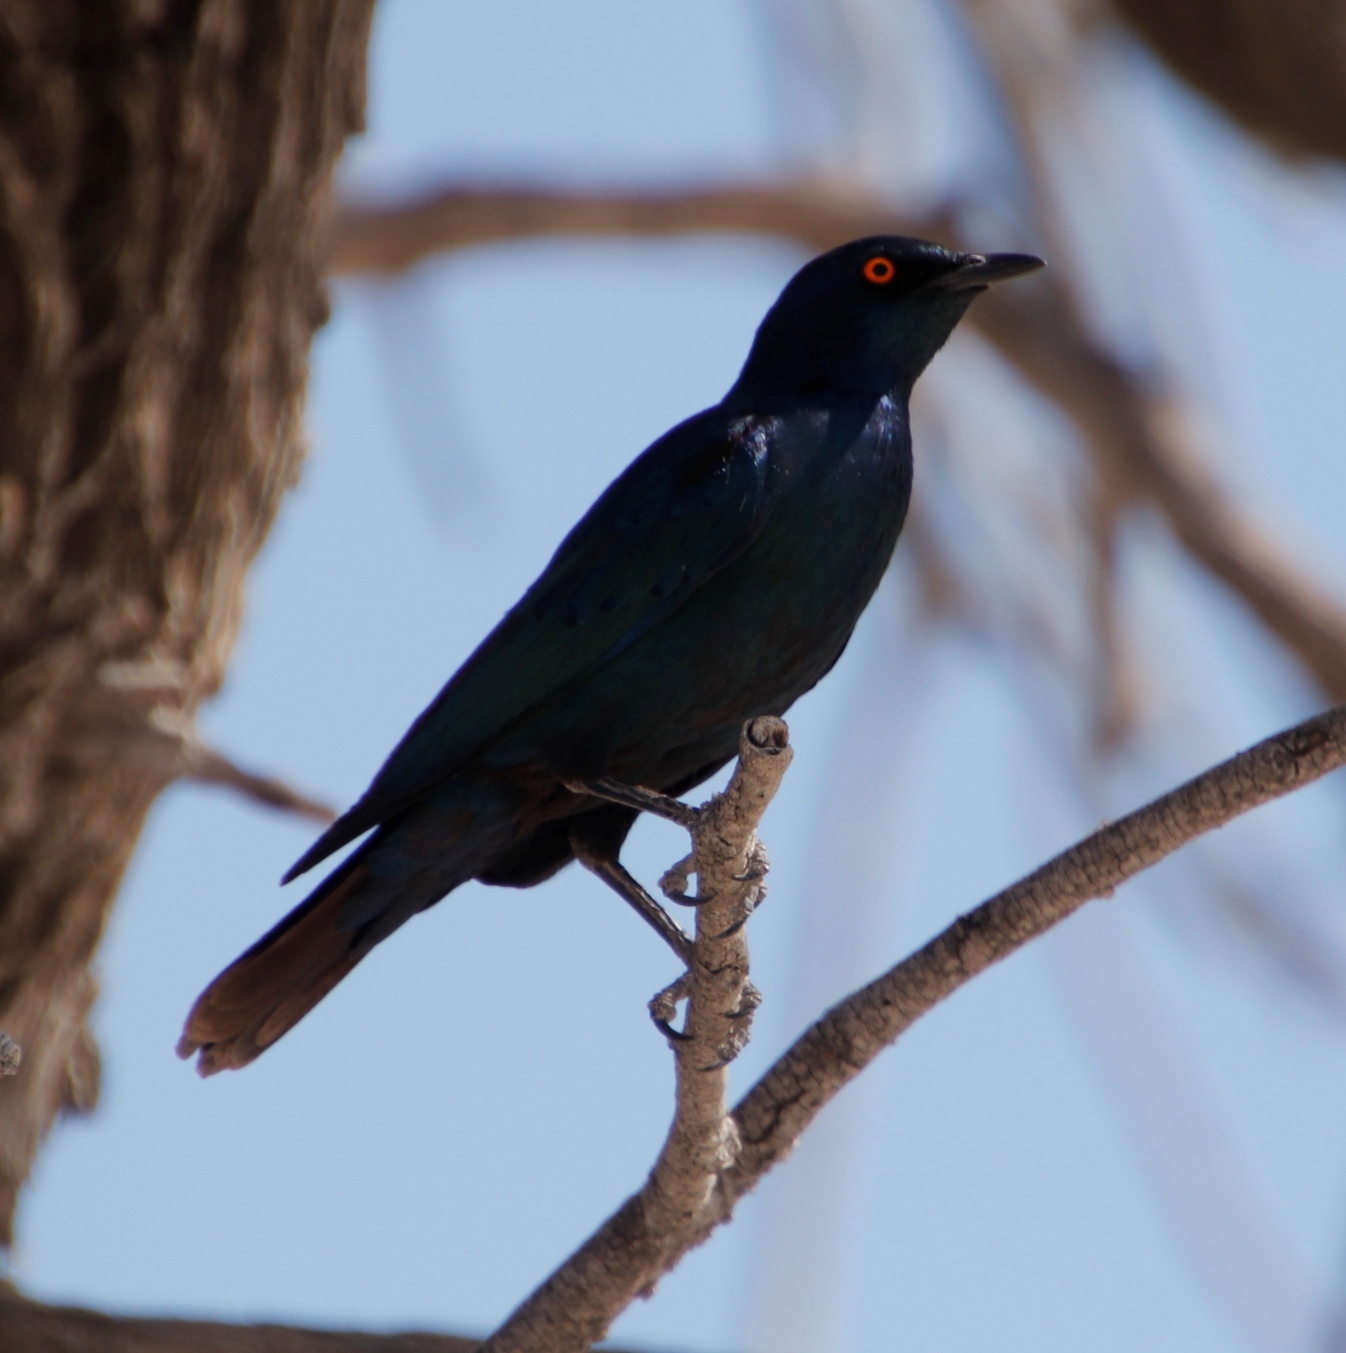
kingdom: Animalia
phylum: Chordata
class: Aves
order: Passeriformes
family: Sturnidae
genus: Lamprotornis
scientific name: Lamprotornis nitens
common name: Cape starling
